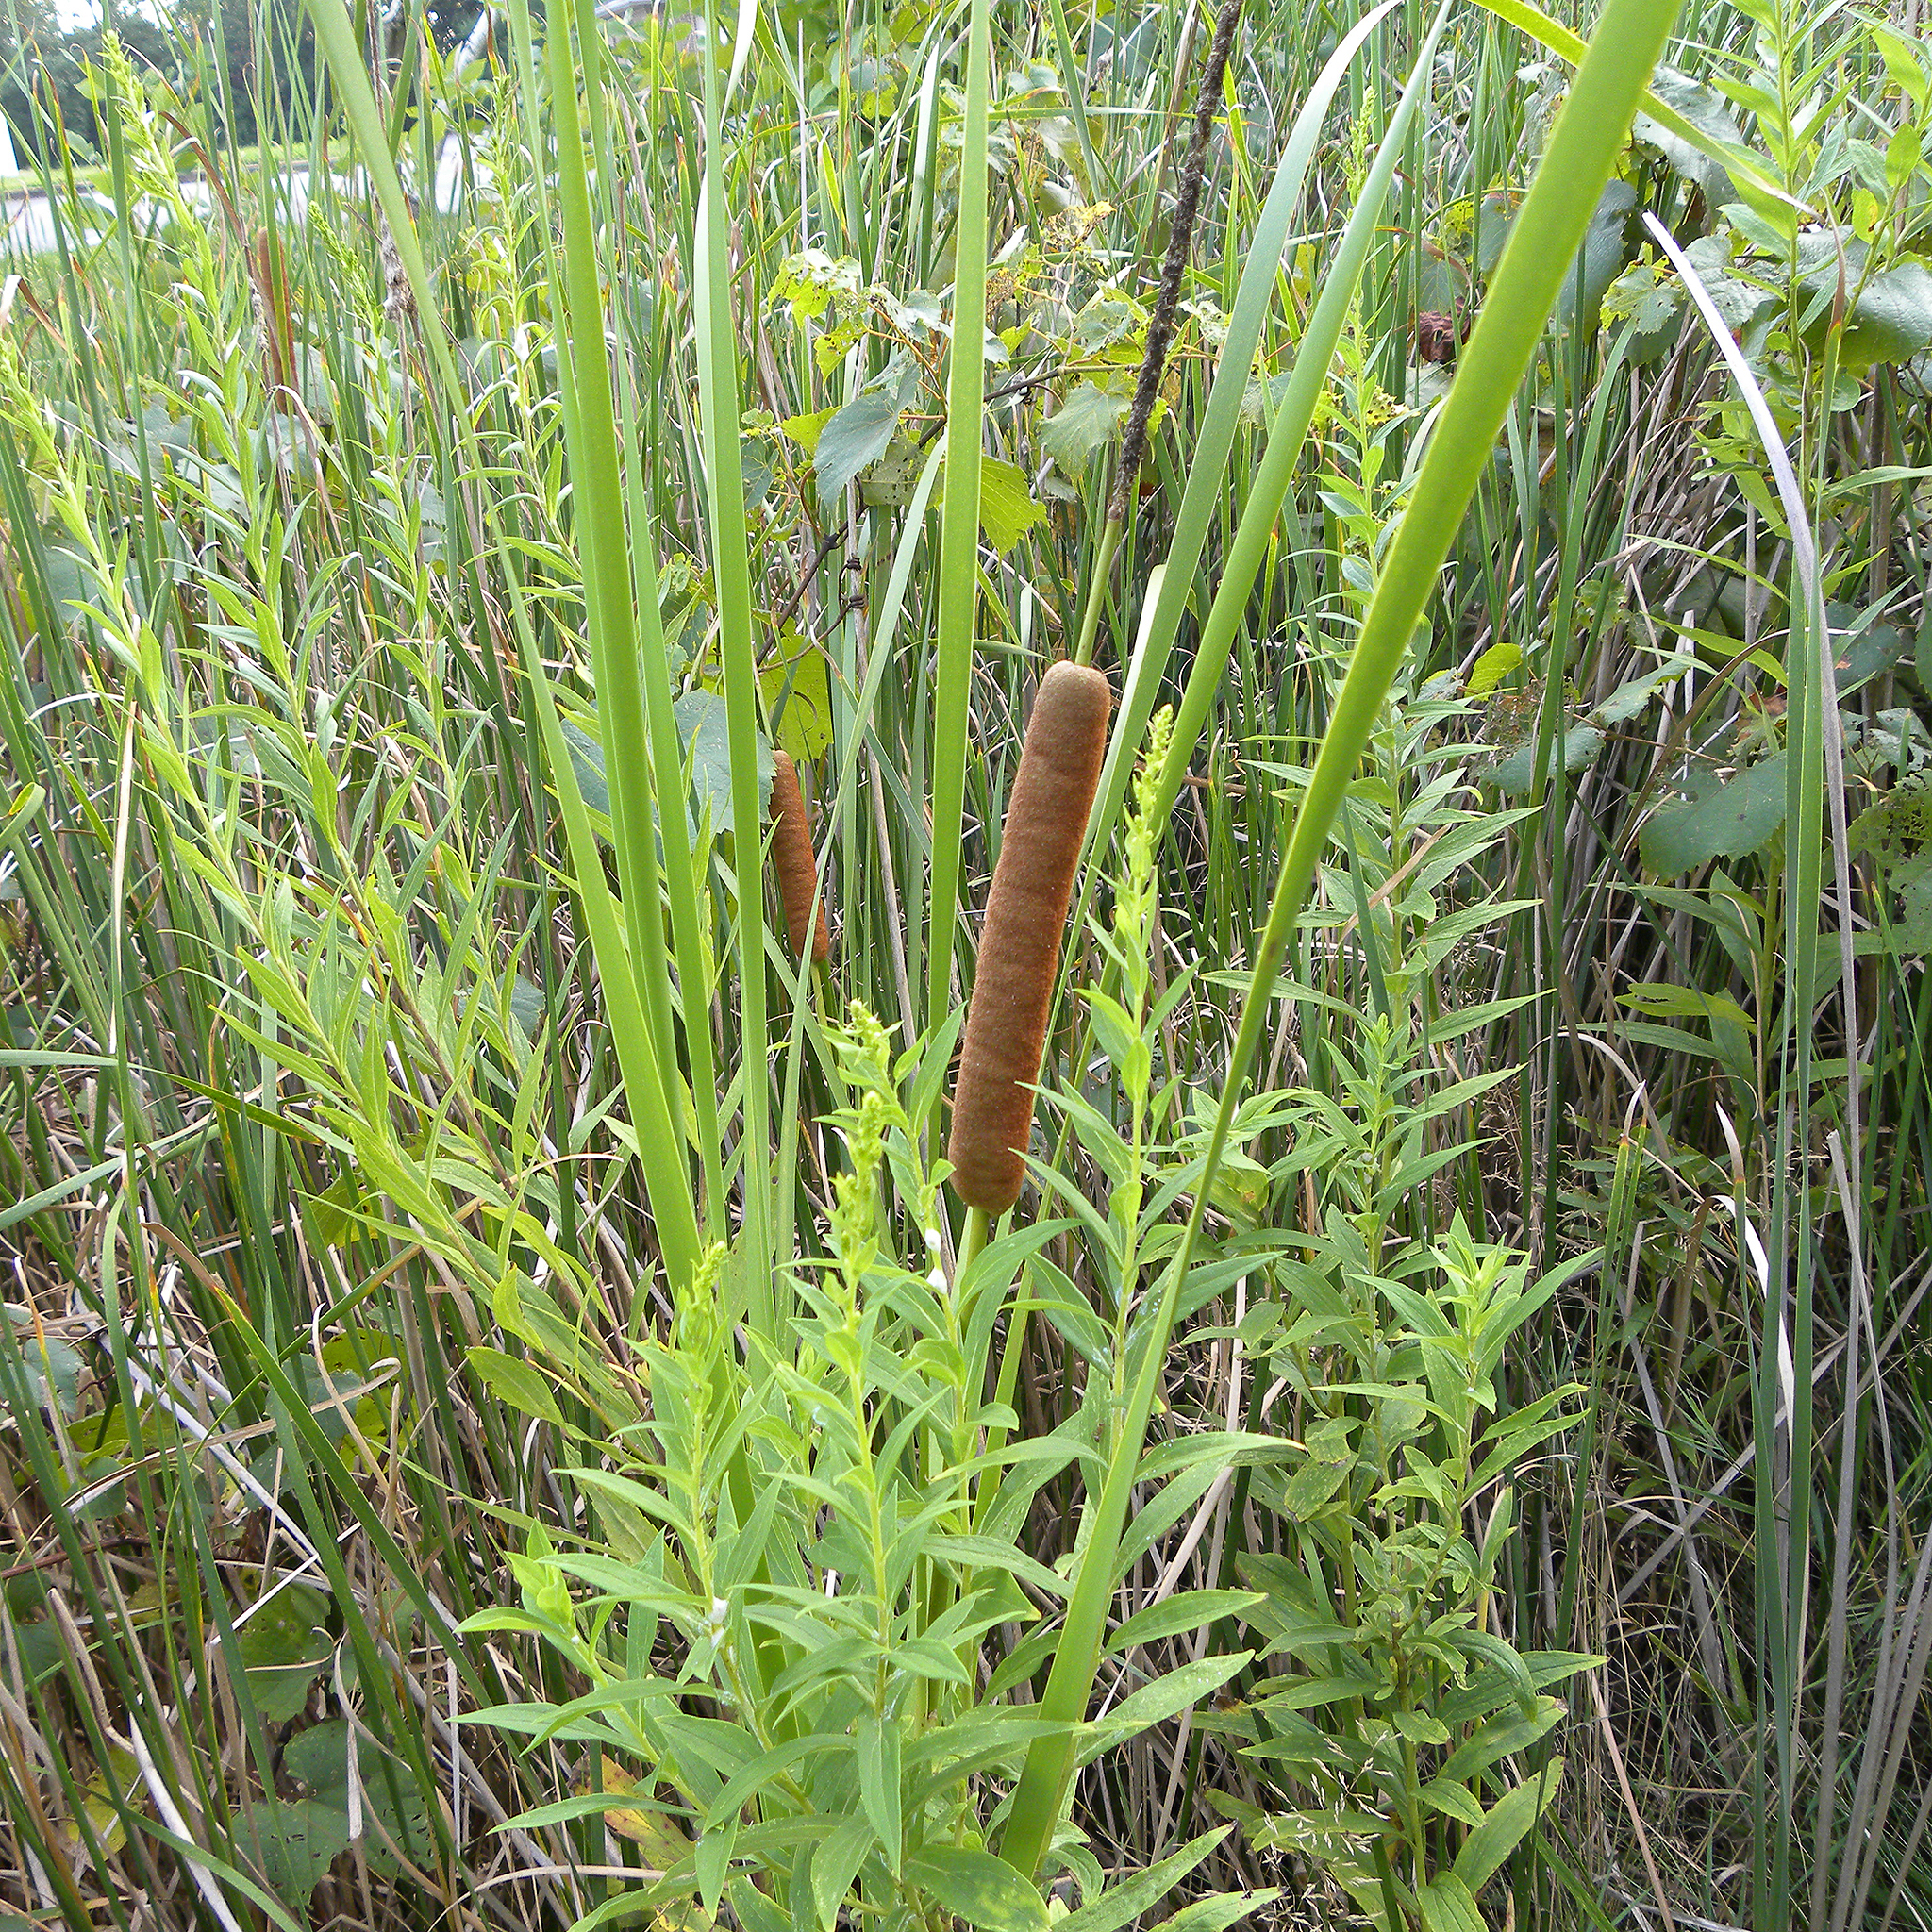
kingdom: Plantae
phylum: Tracheophyta
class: Liliopsida
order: Poales
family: Typhaceae
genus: Typha
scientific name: Typha angustifolia
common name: Lesser bulrush
